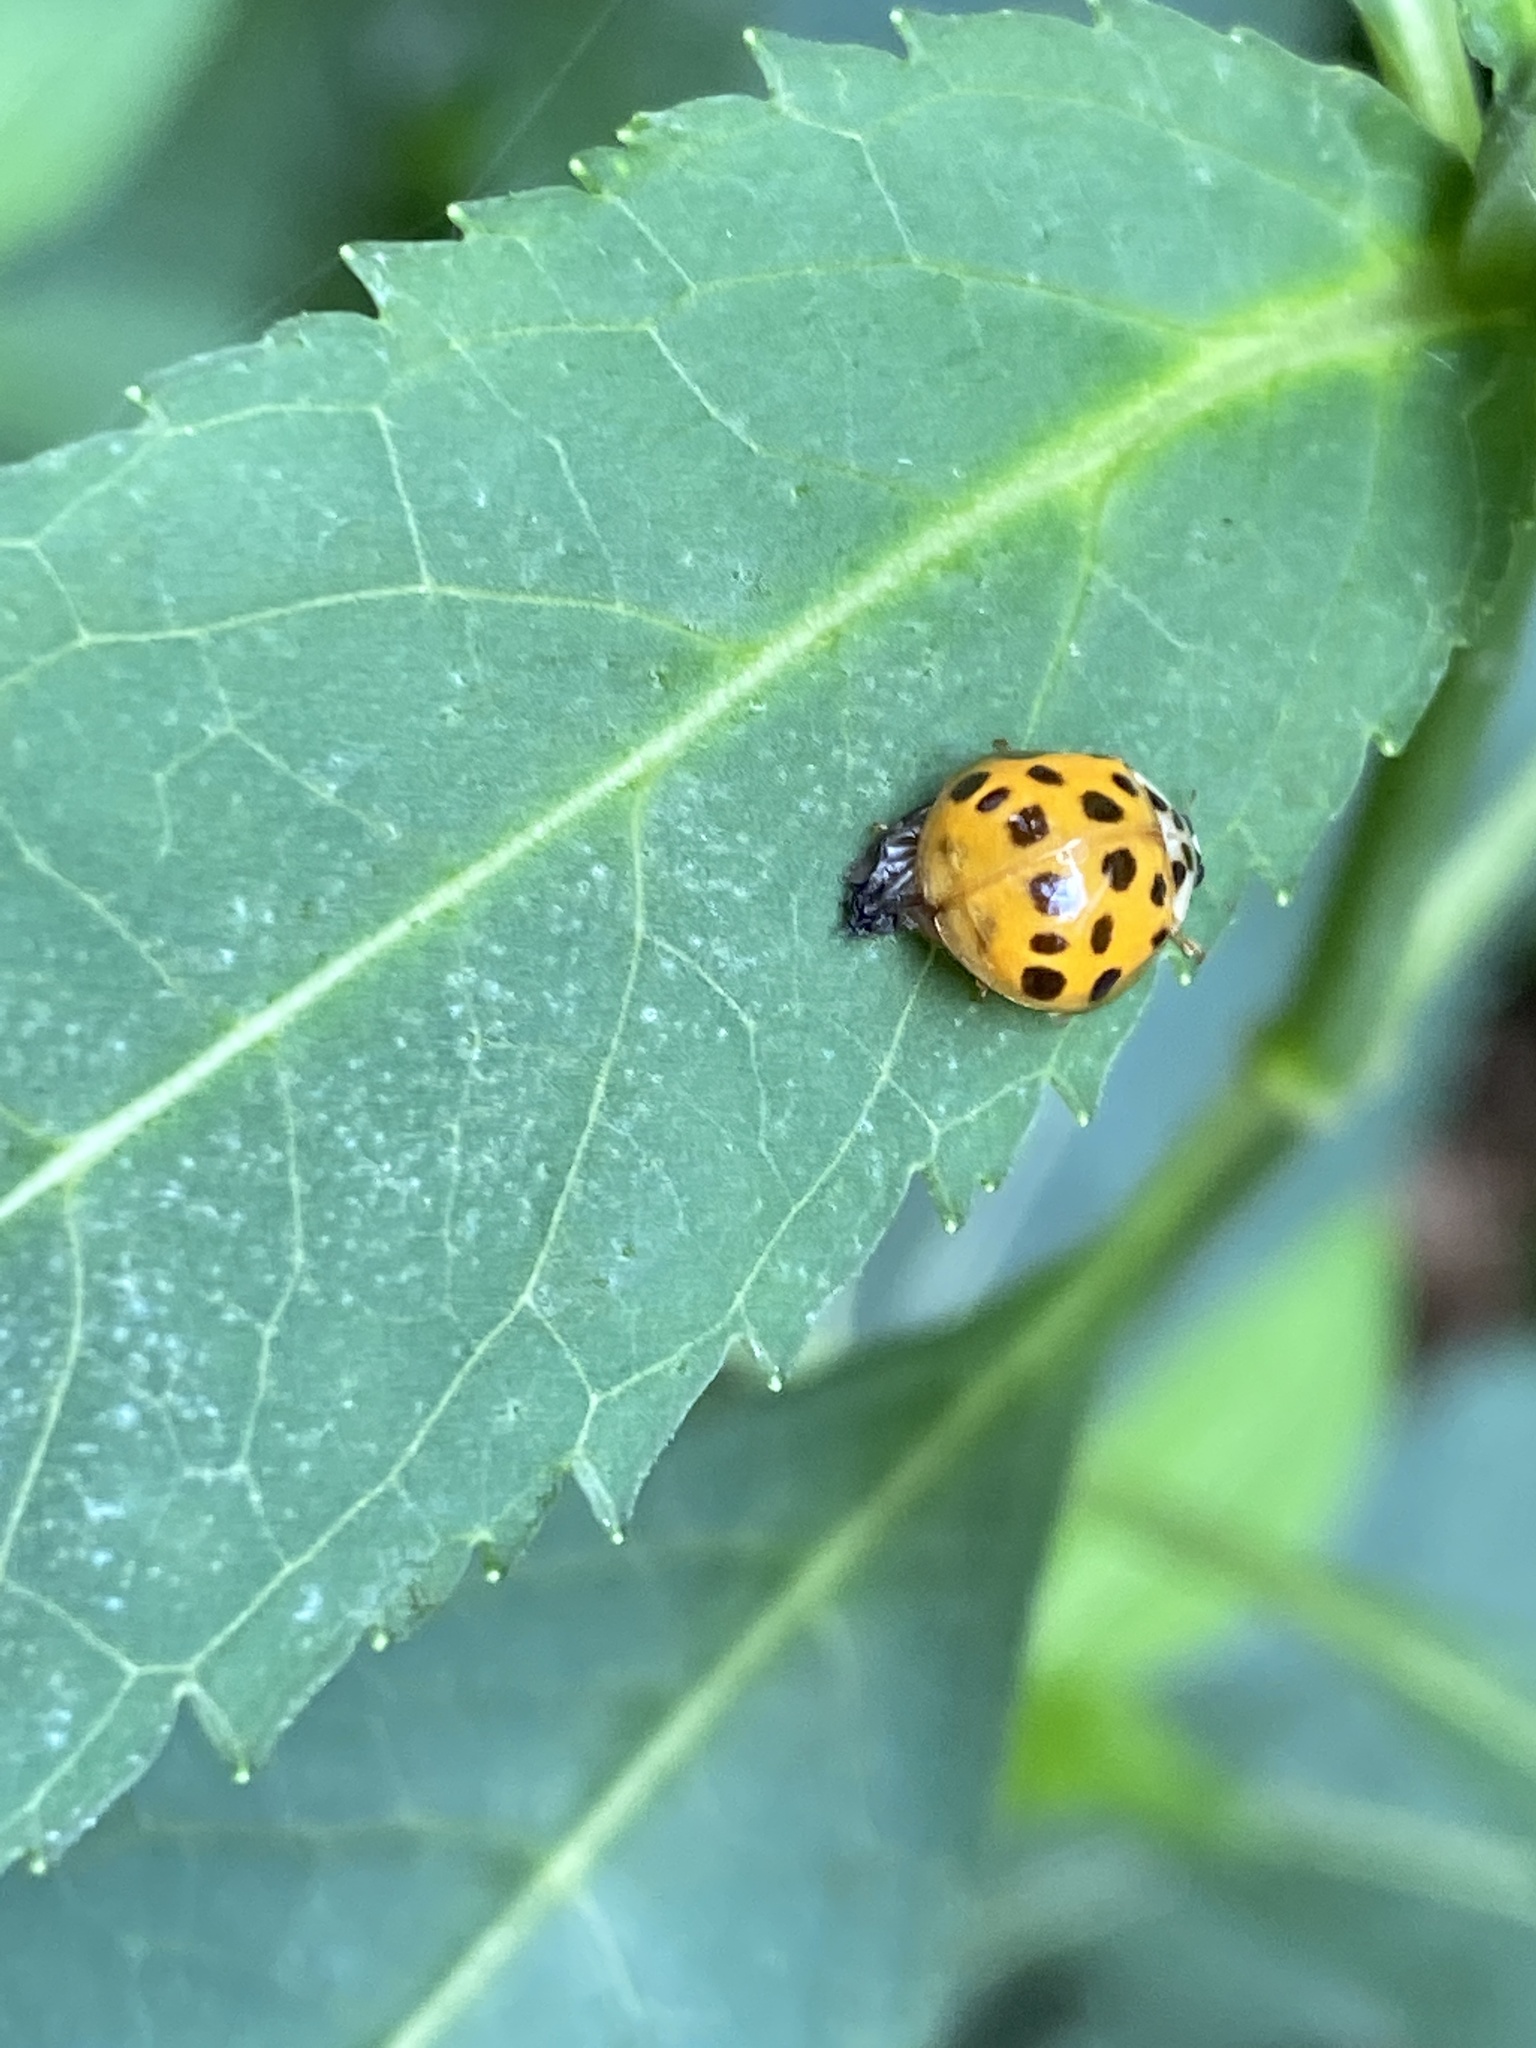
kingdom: Animalia
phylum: Arthropoda
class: Insecta
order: Coleoptera
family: Coccinellidae
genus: Harmonia
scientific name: Harmonia axyridis
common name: Harlequin ladybird
